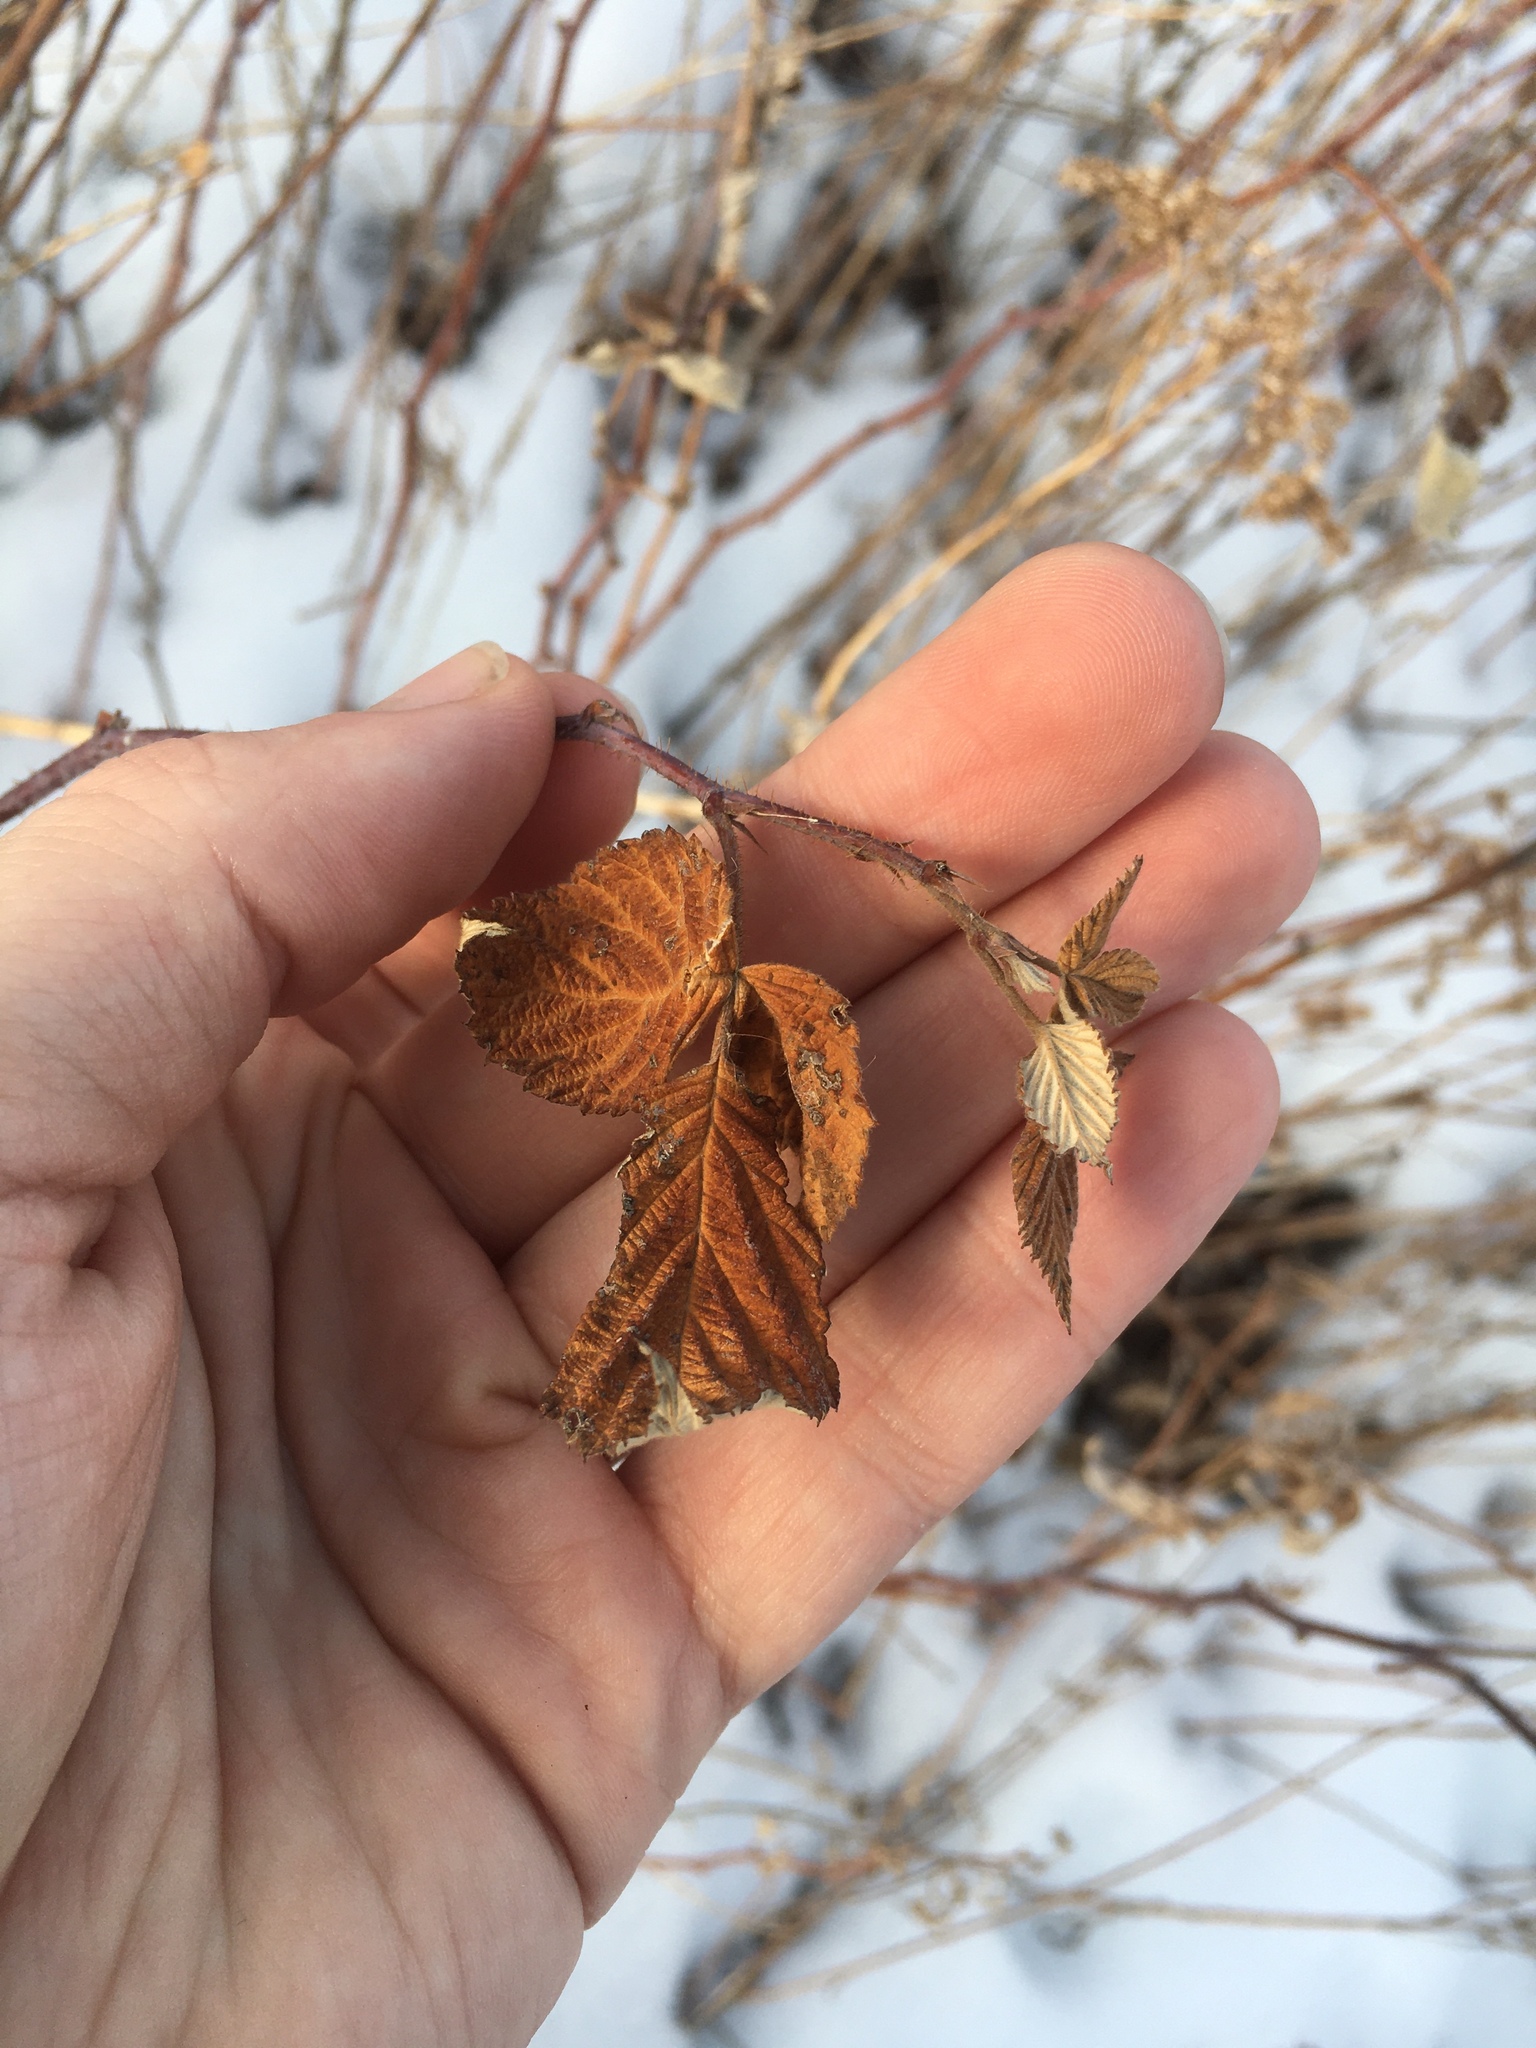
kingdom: Plantae
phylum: Tracheophyta
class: Magnoliopsida
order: Rosales
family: Rosaceae
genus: Rubus
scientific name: Rubus idaeus
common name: Raspberry
